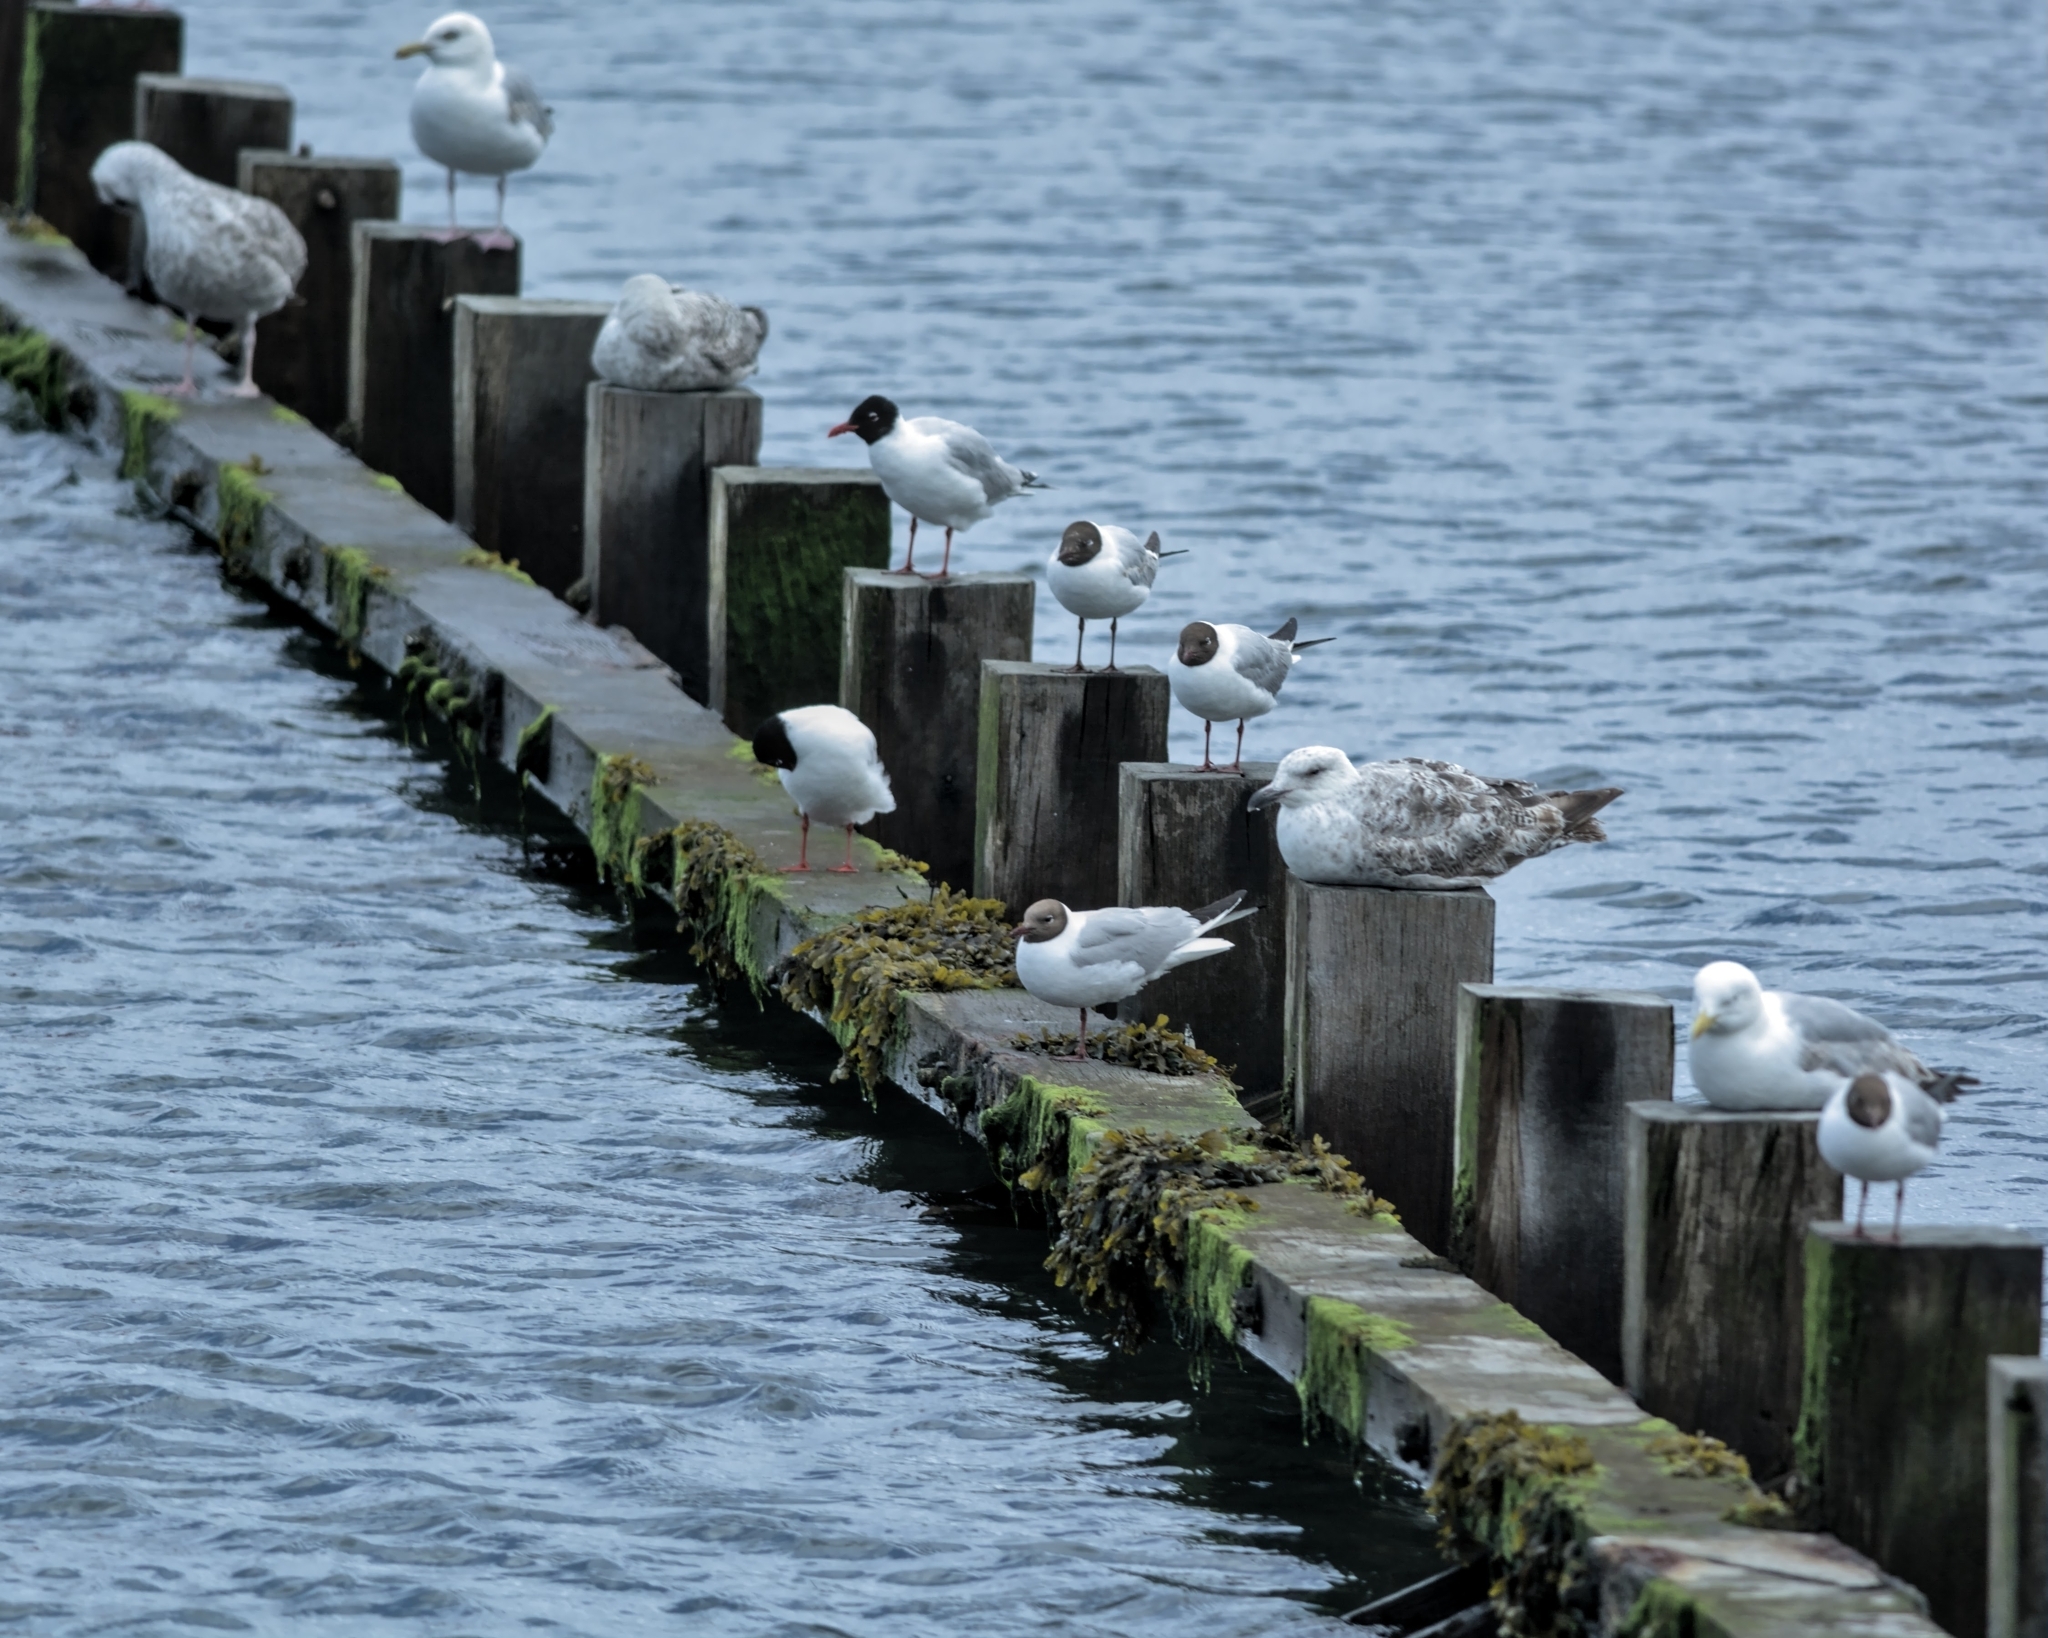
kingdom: Animalia
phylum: Chordata
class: Aves
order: Charadriiformes
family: Laridae
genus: Chroicocephalus
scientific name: Chroicocephalus ridibundus
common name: Black-headed gull
